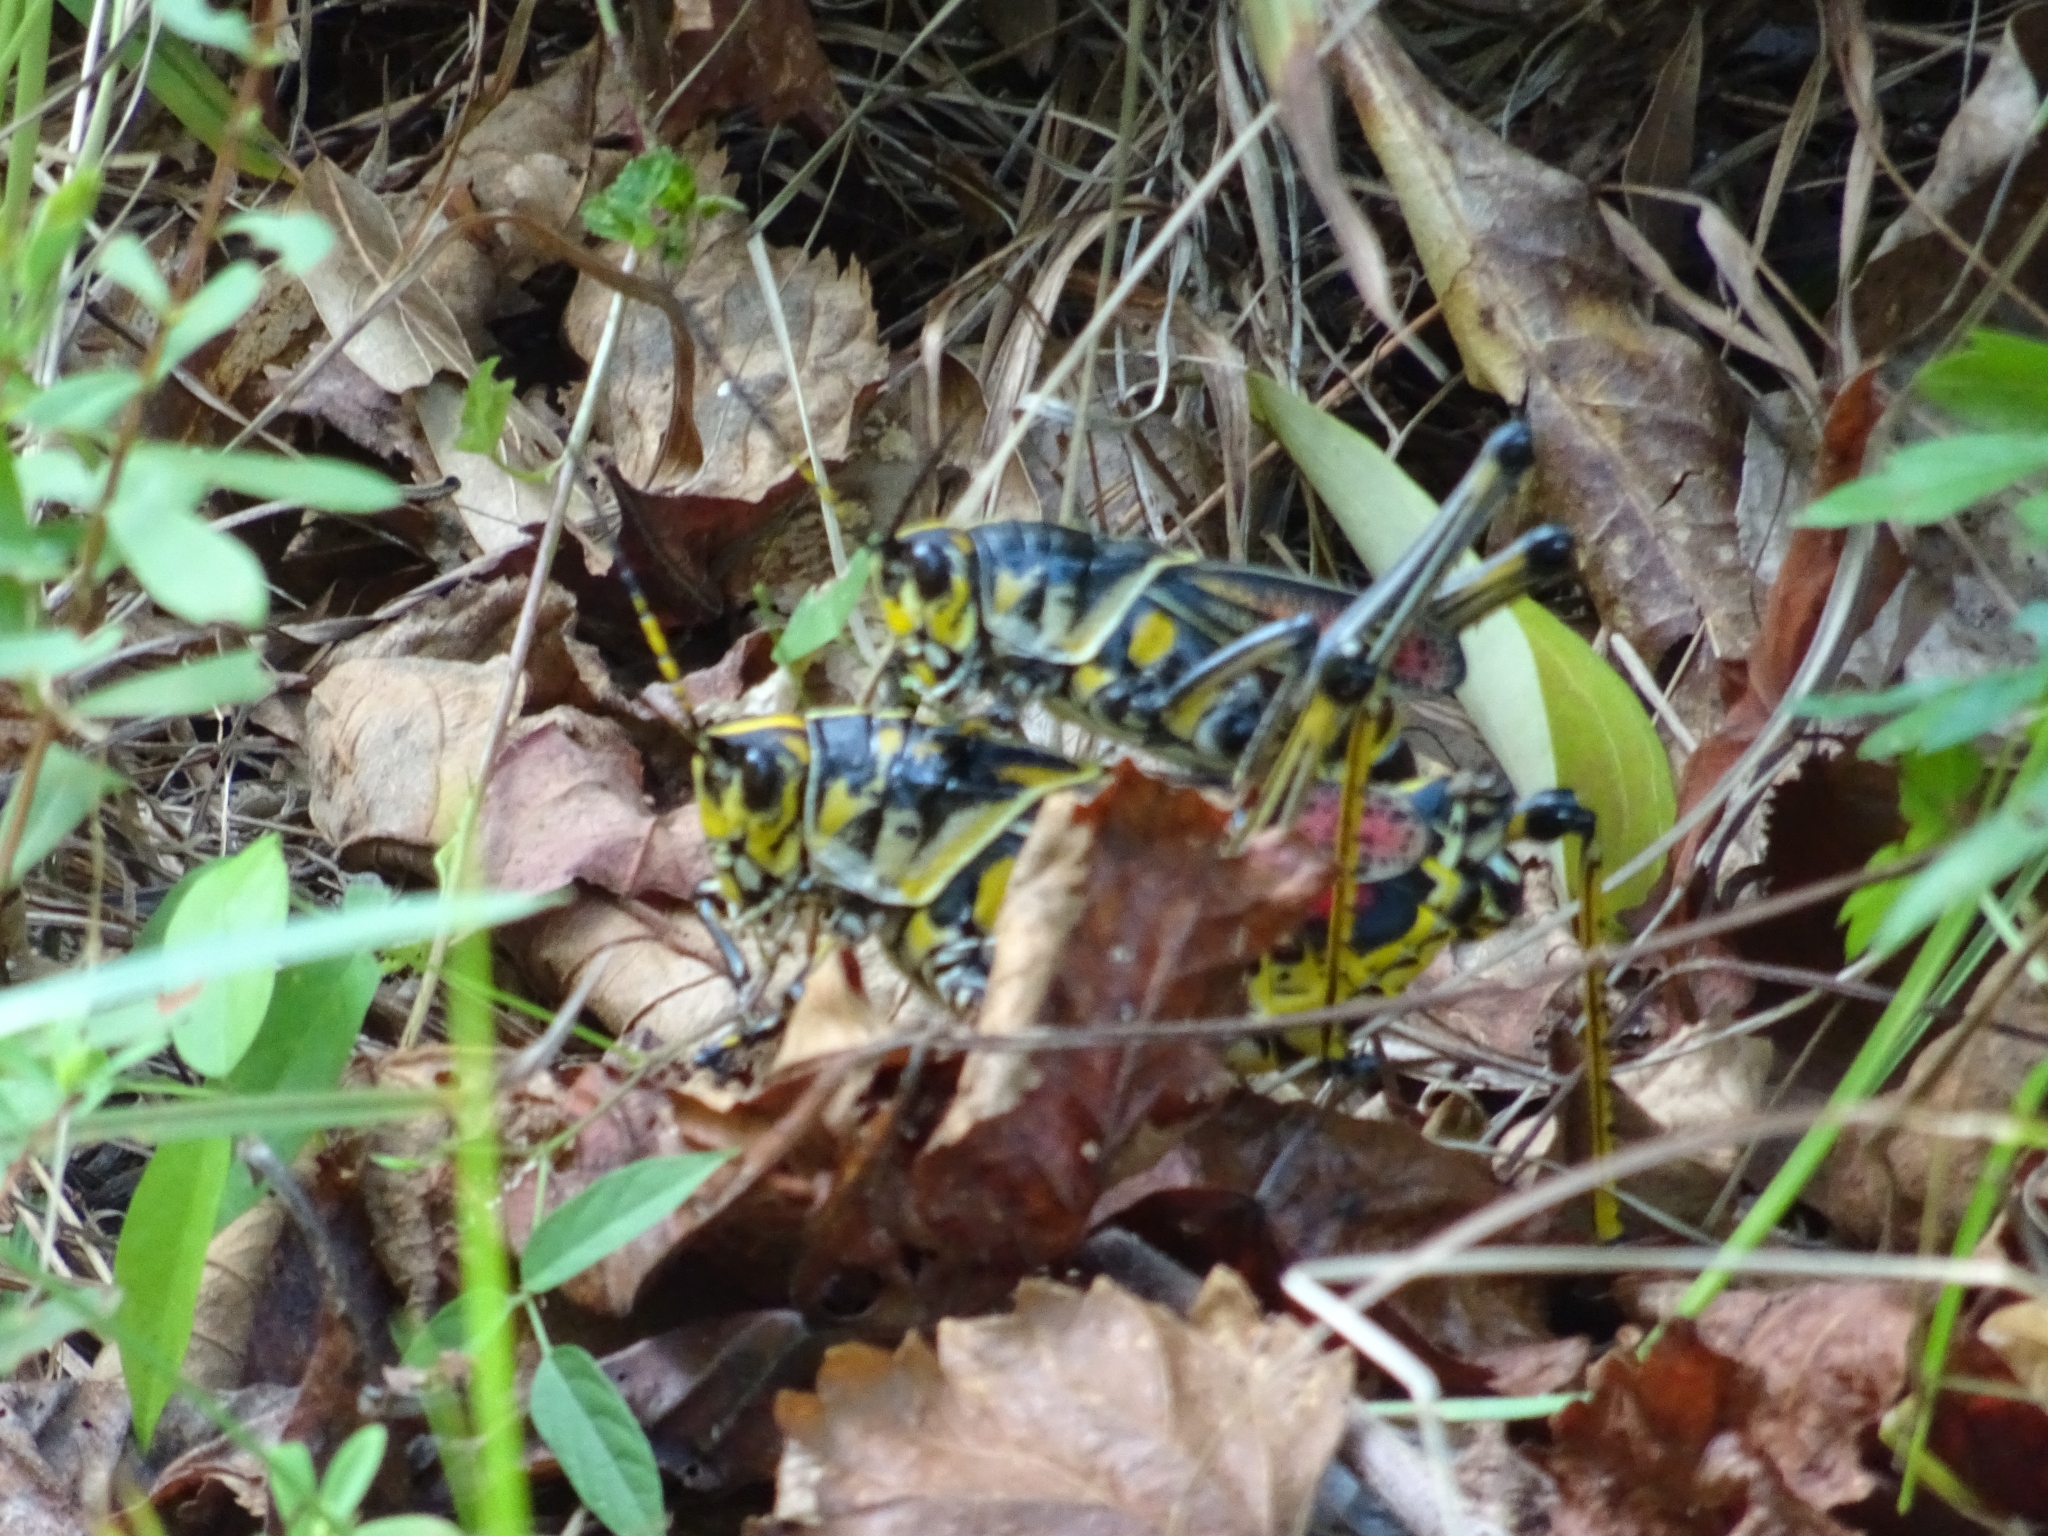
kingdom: Animalia
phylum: Arthropoda
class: Insecta
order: Orthoptera
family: Romaleidae
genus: Romalea
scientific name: Romalea microptera
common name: Eastern lubber grasshopper
